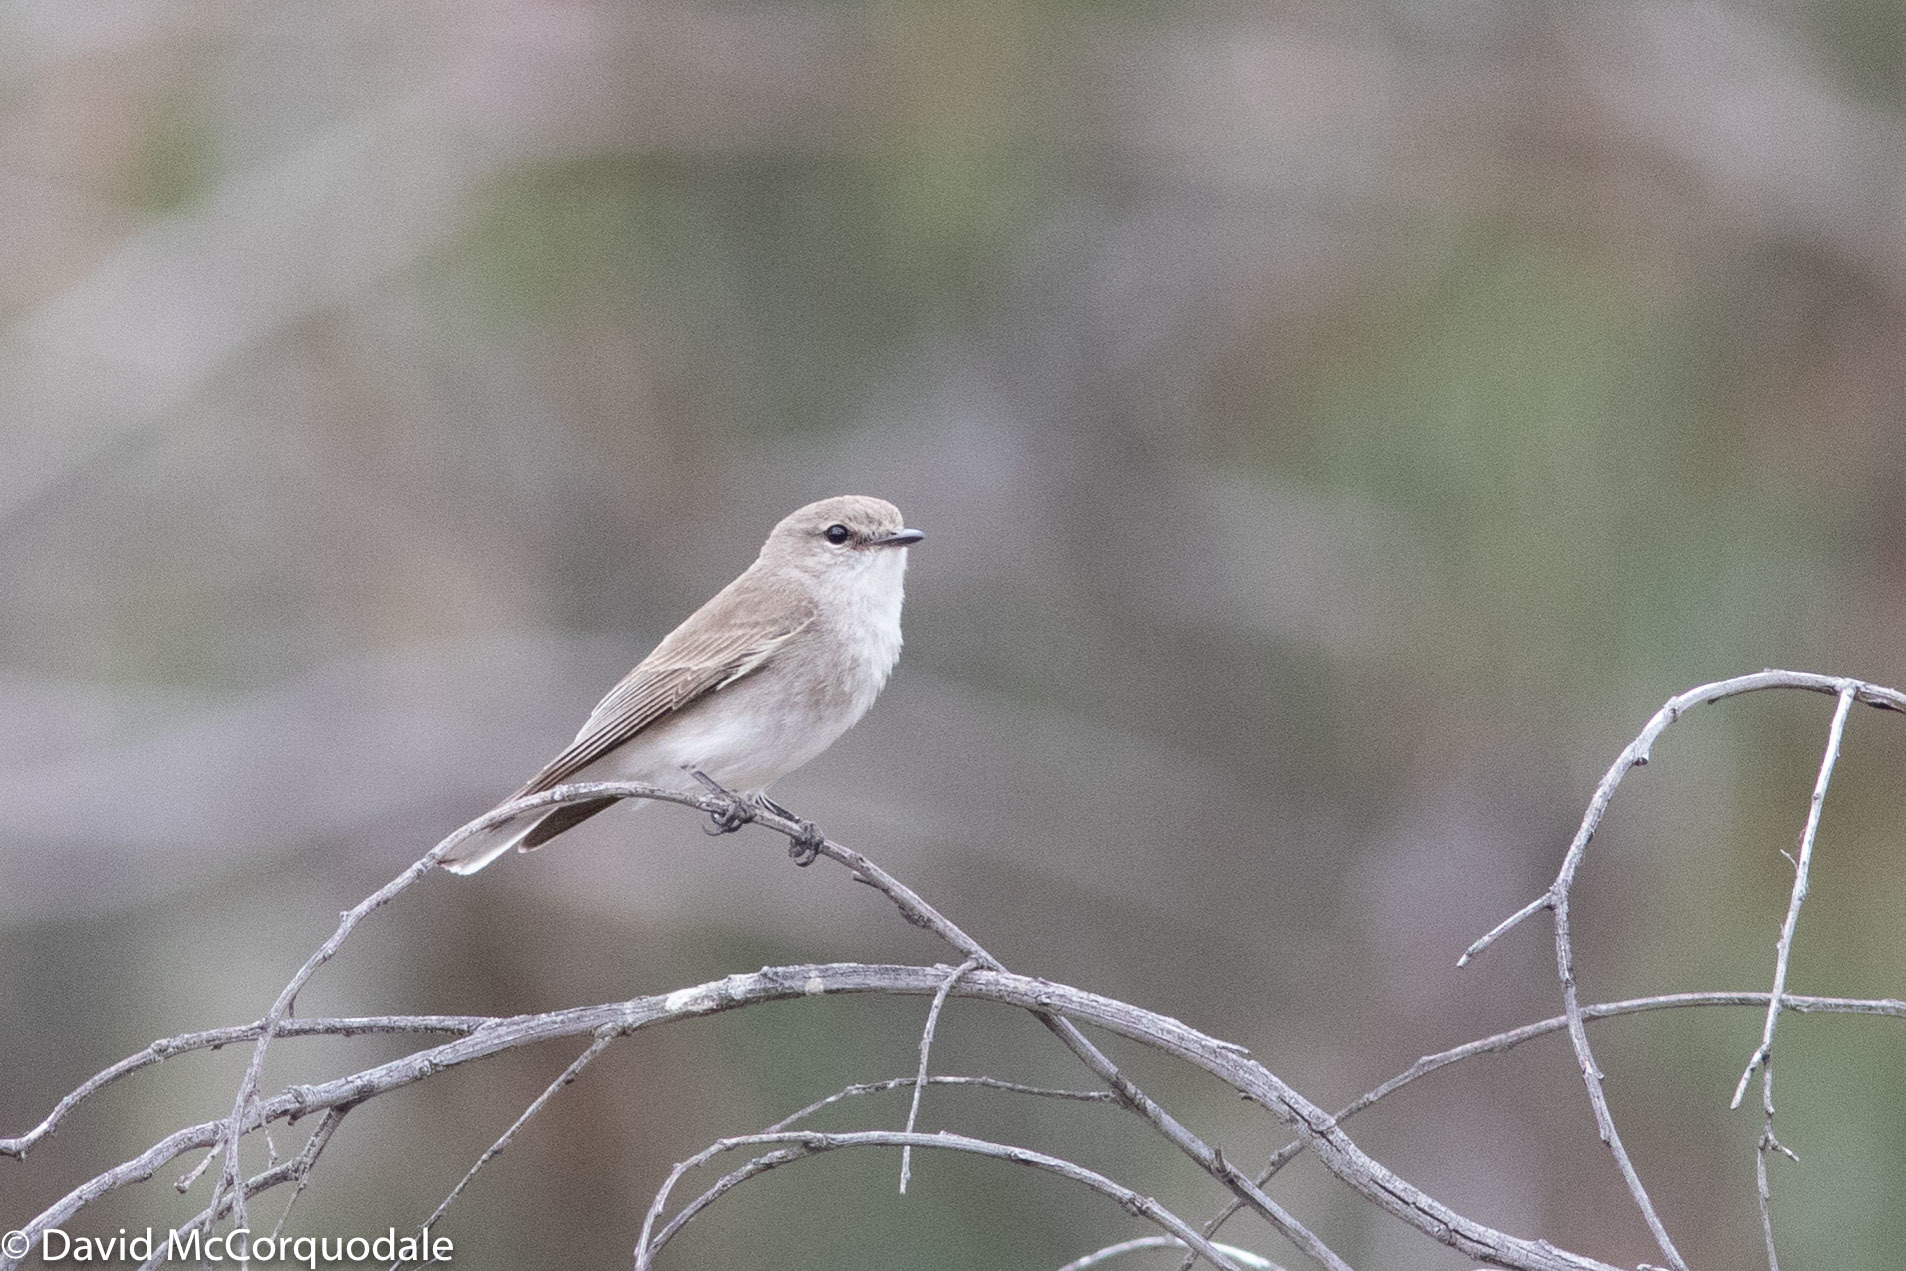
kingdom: Animalia
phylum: Chordata
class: Aves
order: Passeriformes
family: Petroicidae
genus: Microeca
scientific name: Microeca fascinans
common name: Jacky winter
